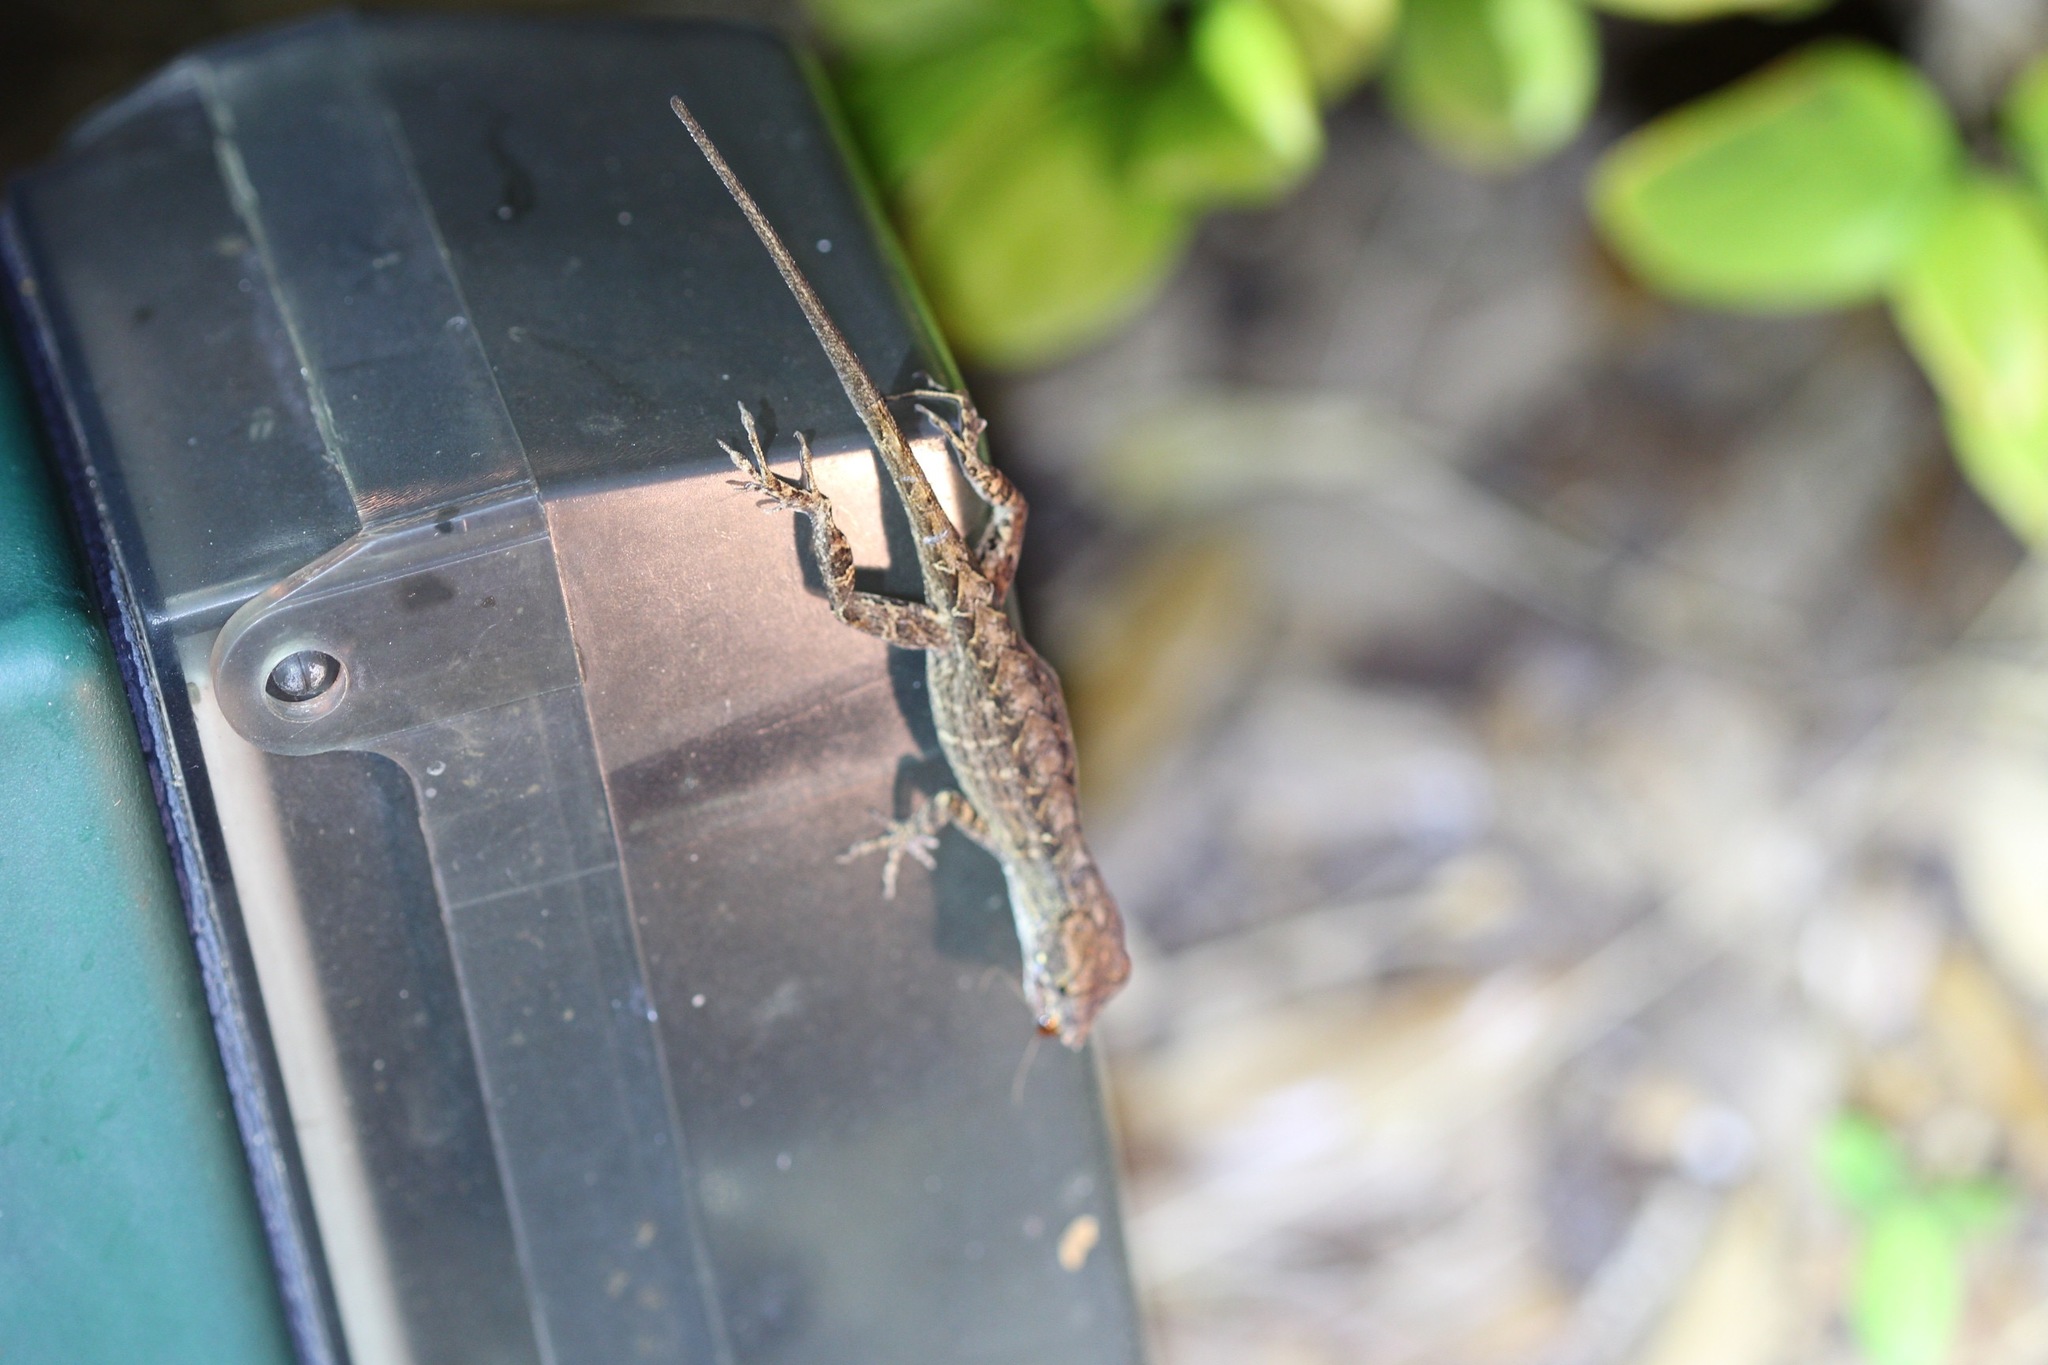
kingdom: Animalia
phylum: Chordata
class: Squamata
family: Dactyloidae
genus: Anolis
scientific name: Anolis sagrei
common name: Brown anole
